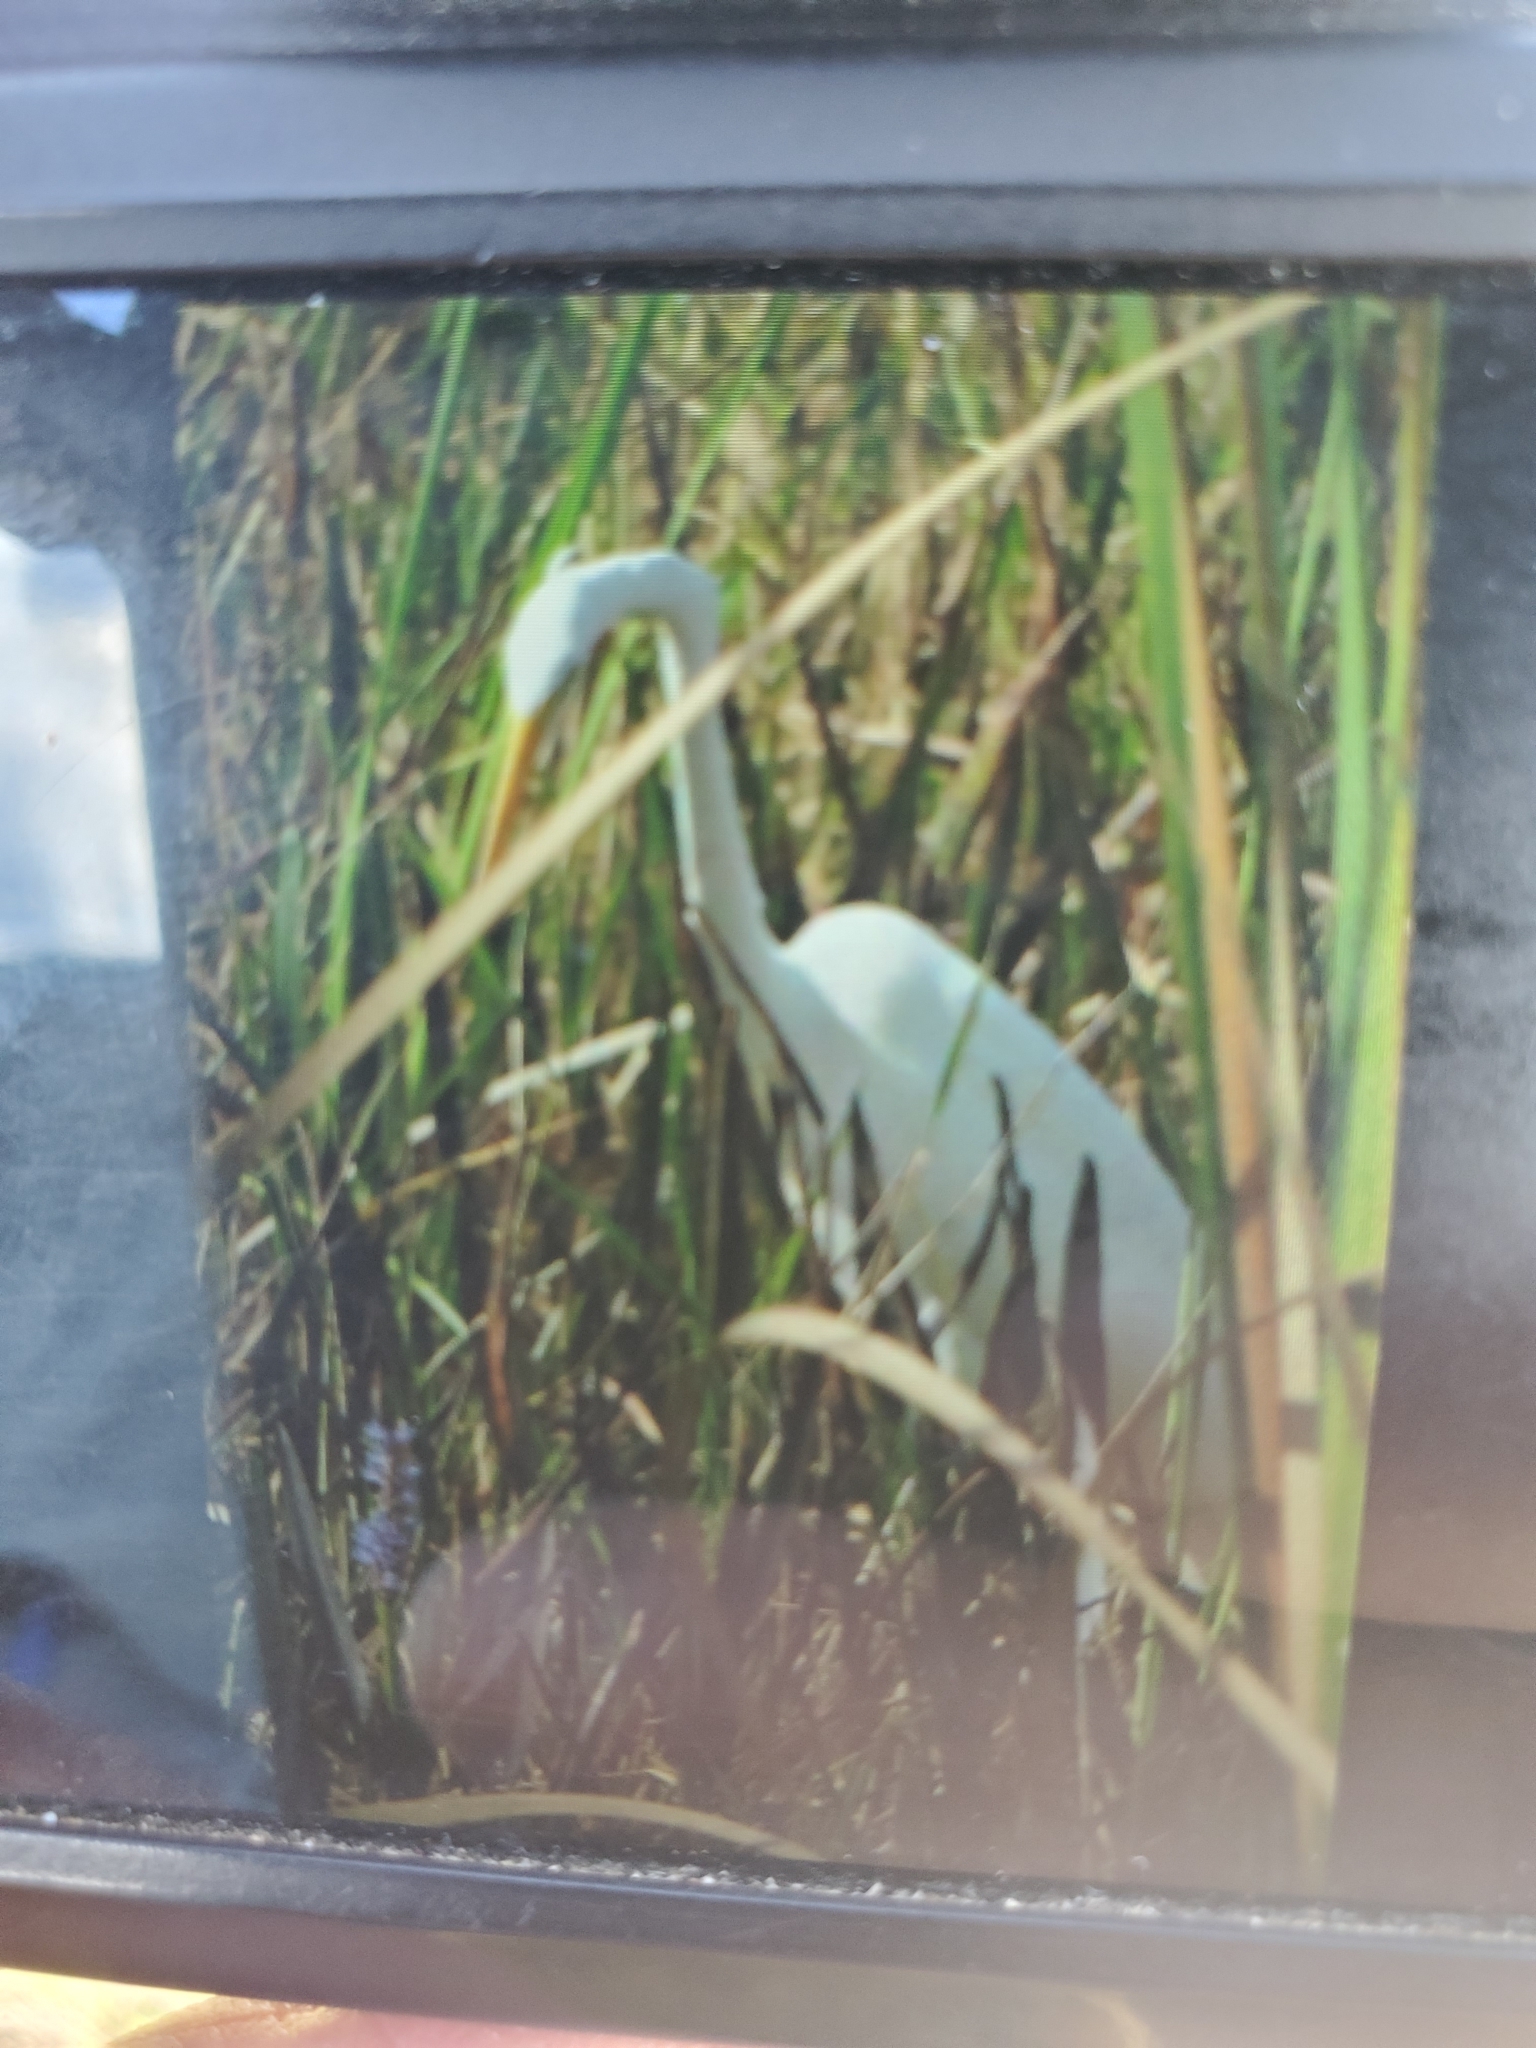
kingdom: Animalia
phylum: Chordata
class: Aves
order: Pelecaniformes
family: Ardeidae
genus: Ardea
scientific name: Ardea alba
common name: Great egret
